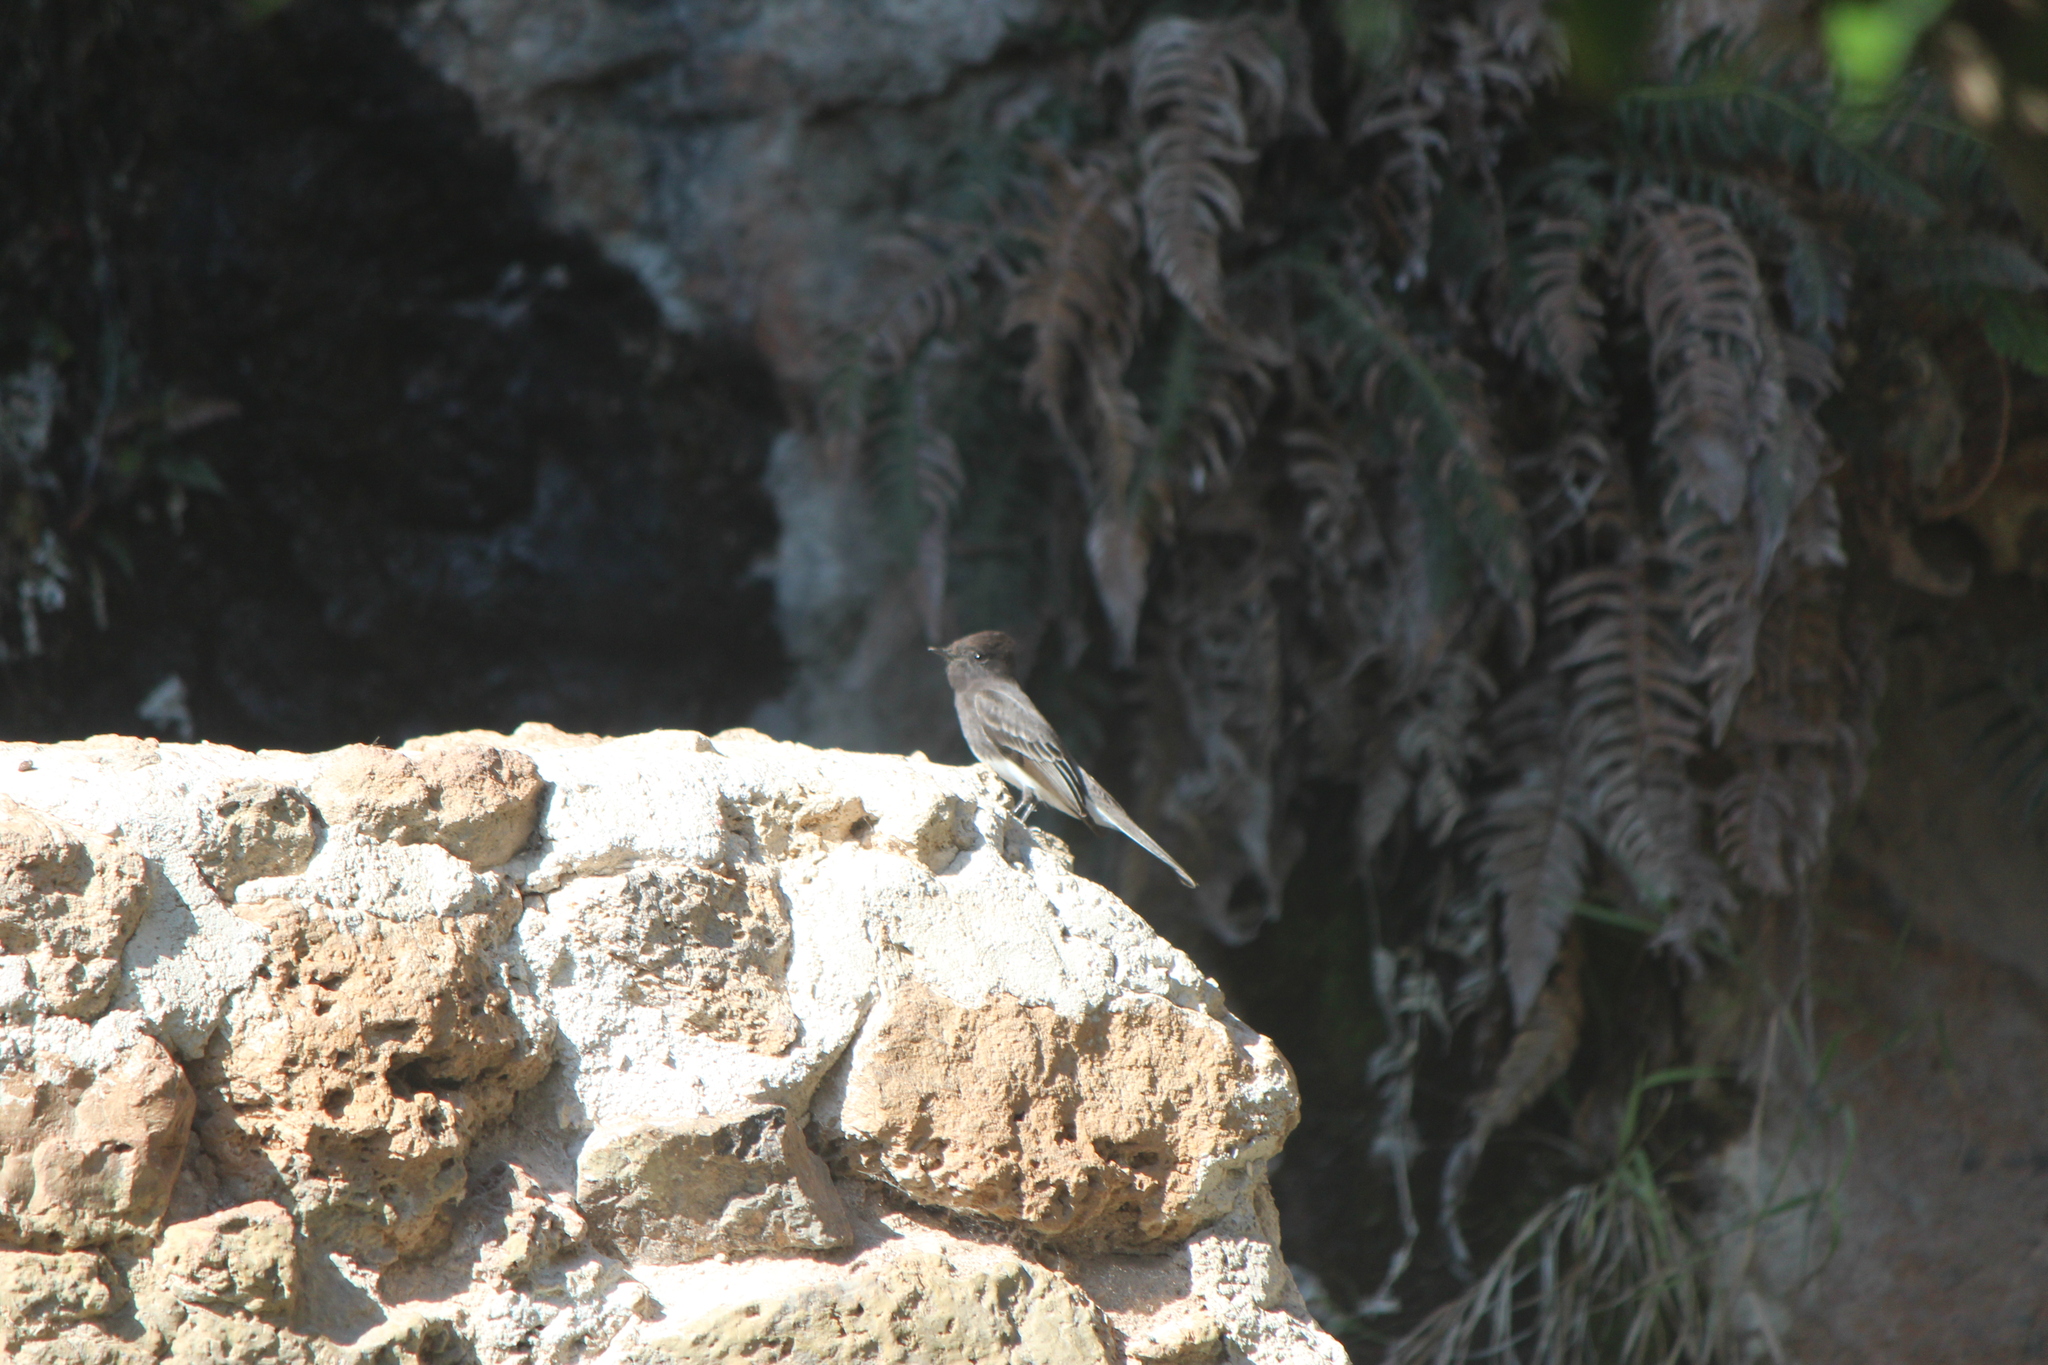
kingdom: Animalia
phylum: Chordata
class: Aves
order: Passeriformes
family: Tyrannidae
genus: Sayornis
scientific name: Sayornis nigricans
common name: Black phoebe
